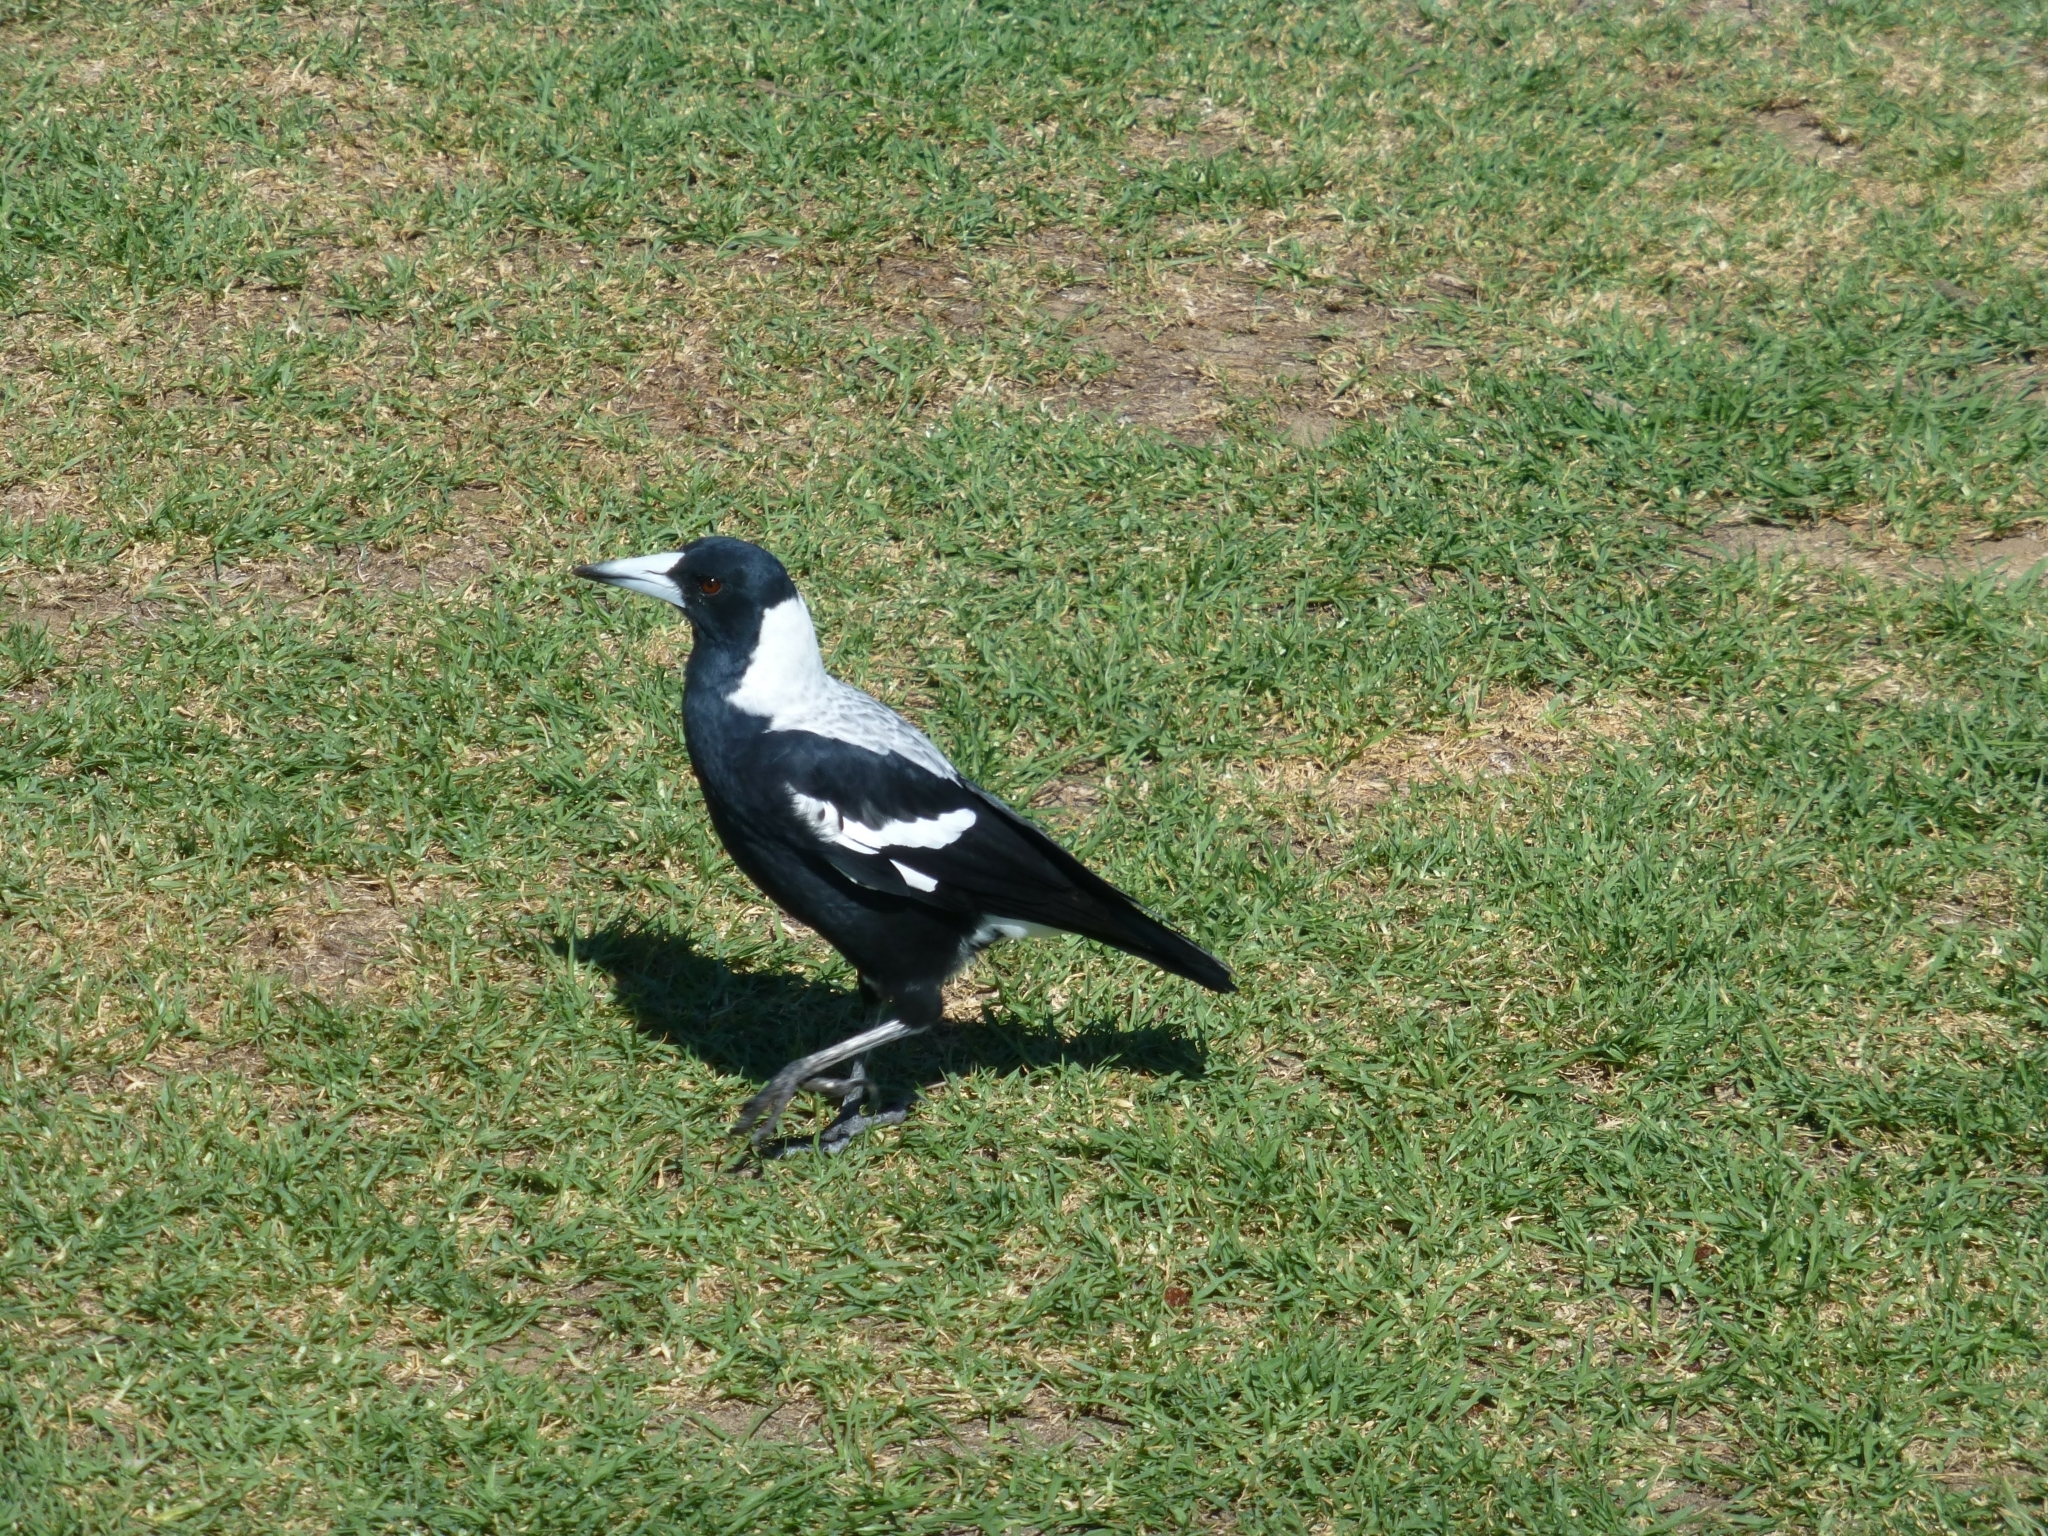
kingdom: Animalia
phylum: Chordata
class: Aves
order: Passeriformes
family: Cracticidae
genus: Gymnorhina
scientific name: Gymnorhina tibicen
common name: Australian magpie
